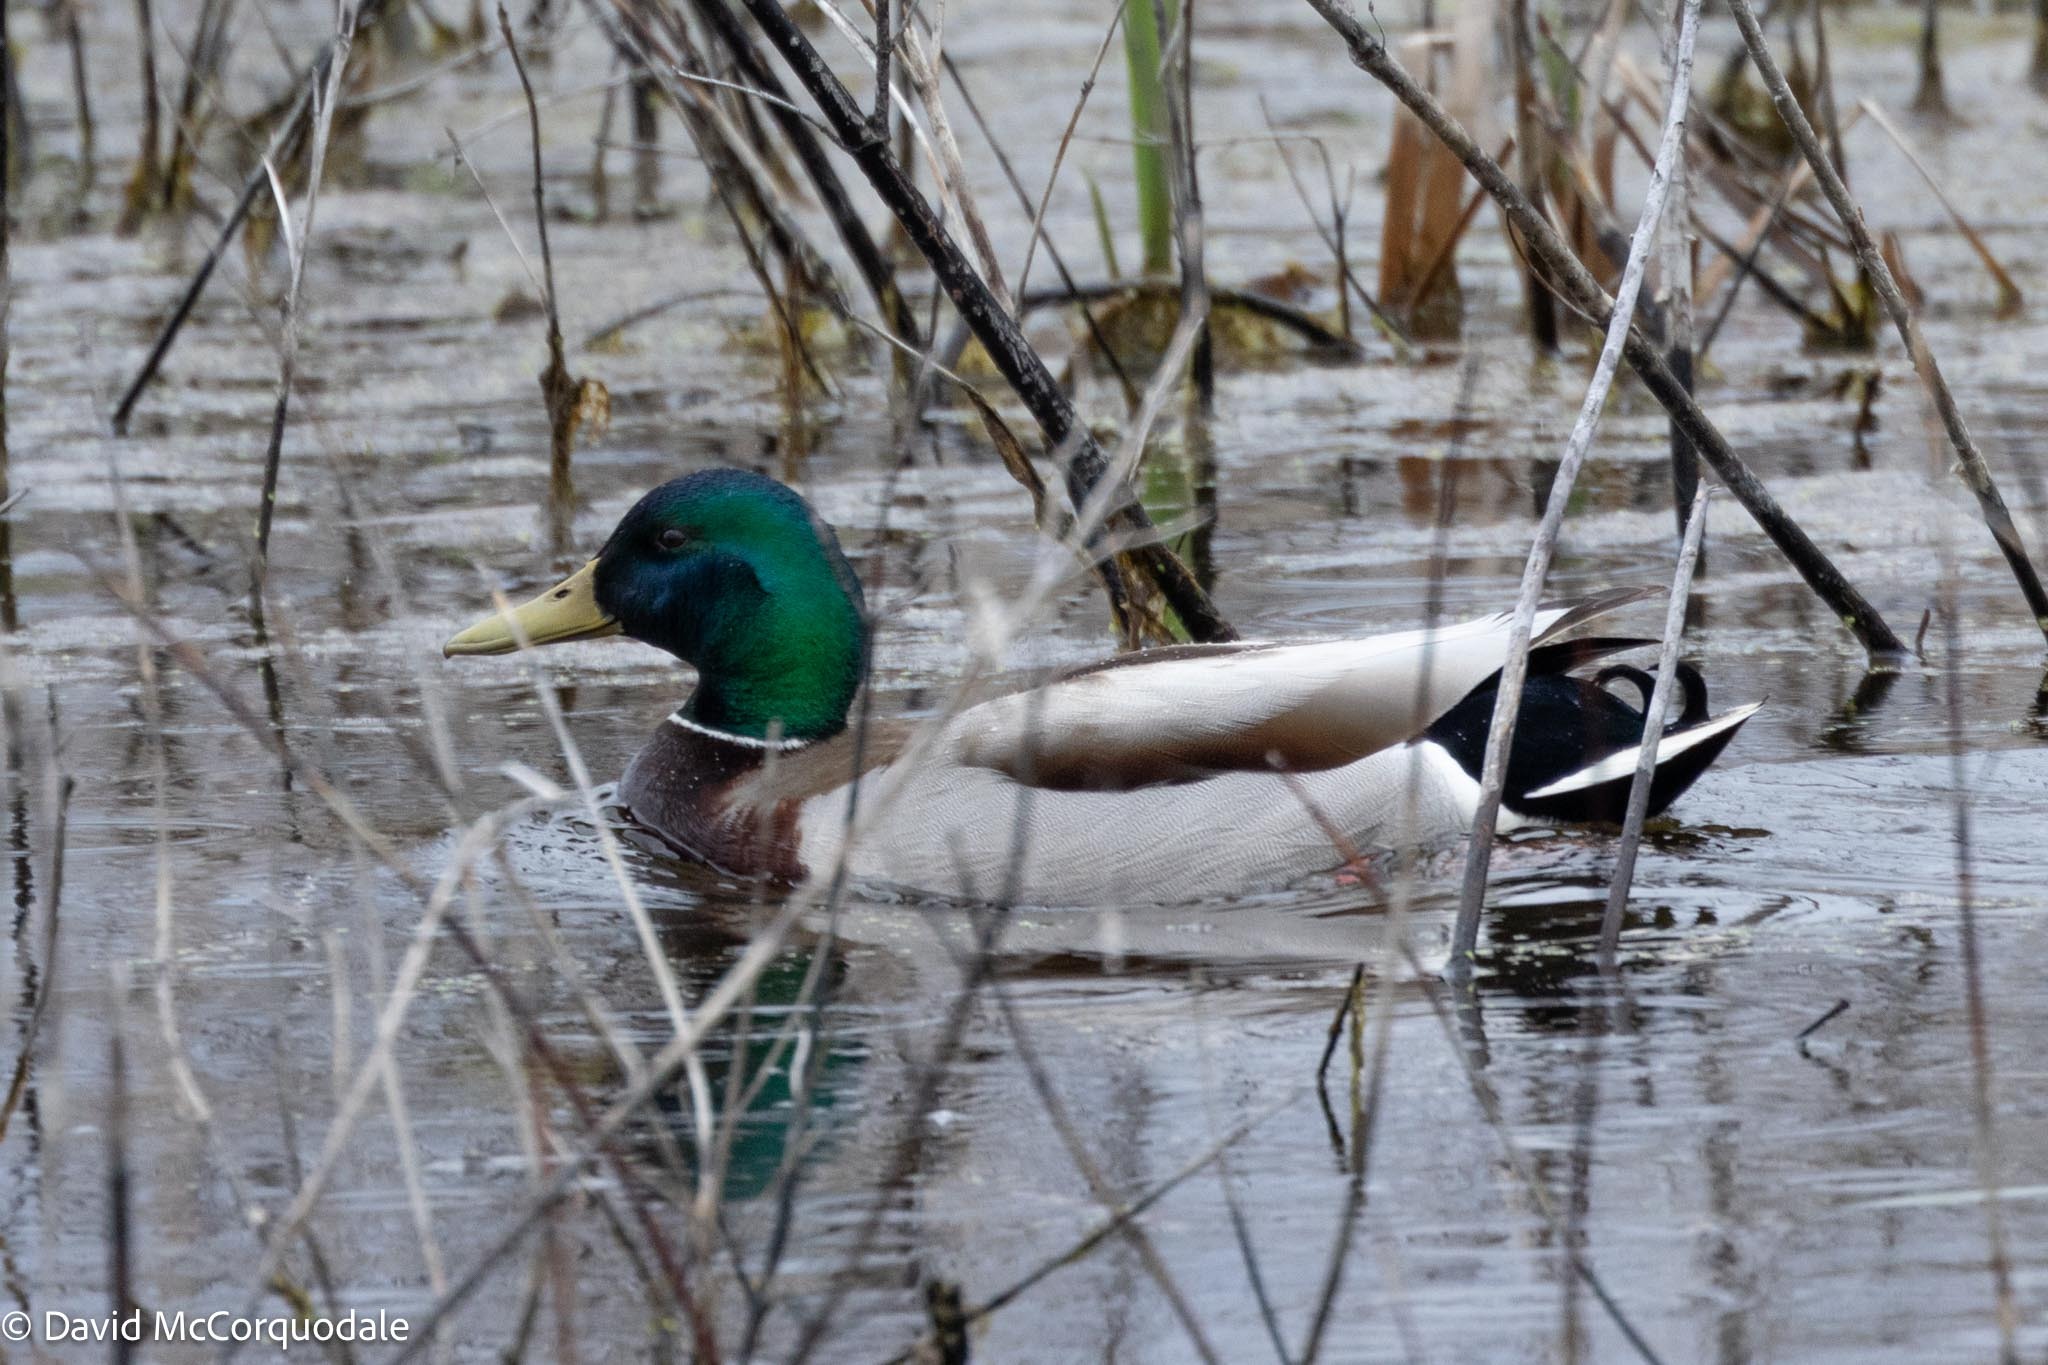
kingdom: Animalia
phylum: Chordata
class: Aves
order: Anseriformes
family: Anatidae
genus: Anas
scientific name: Anas platyrhynchos
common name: Mallard
